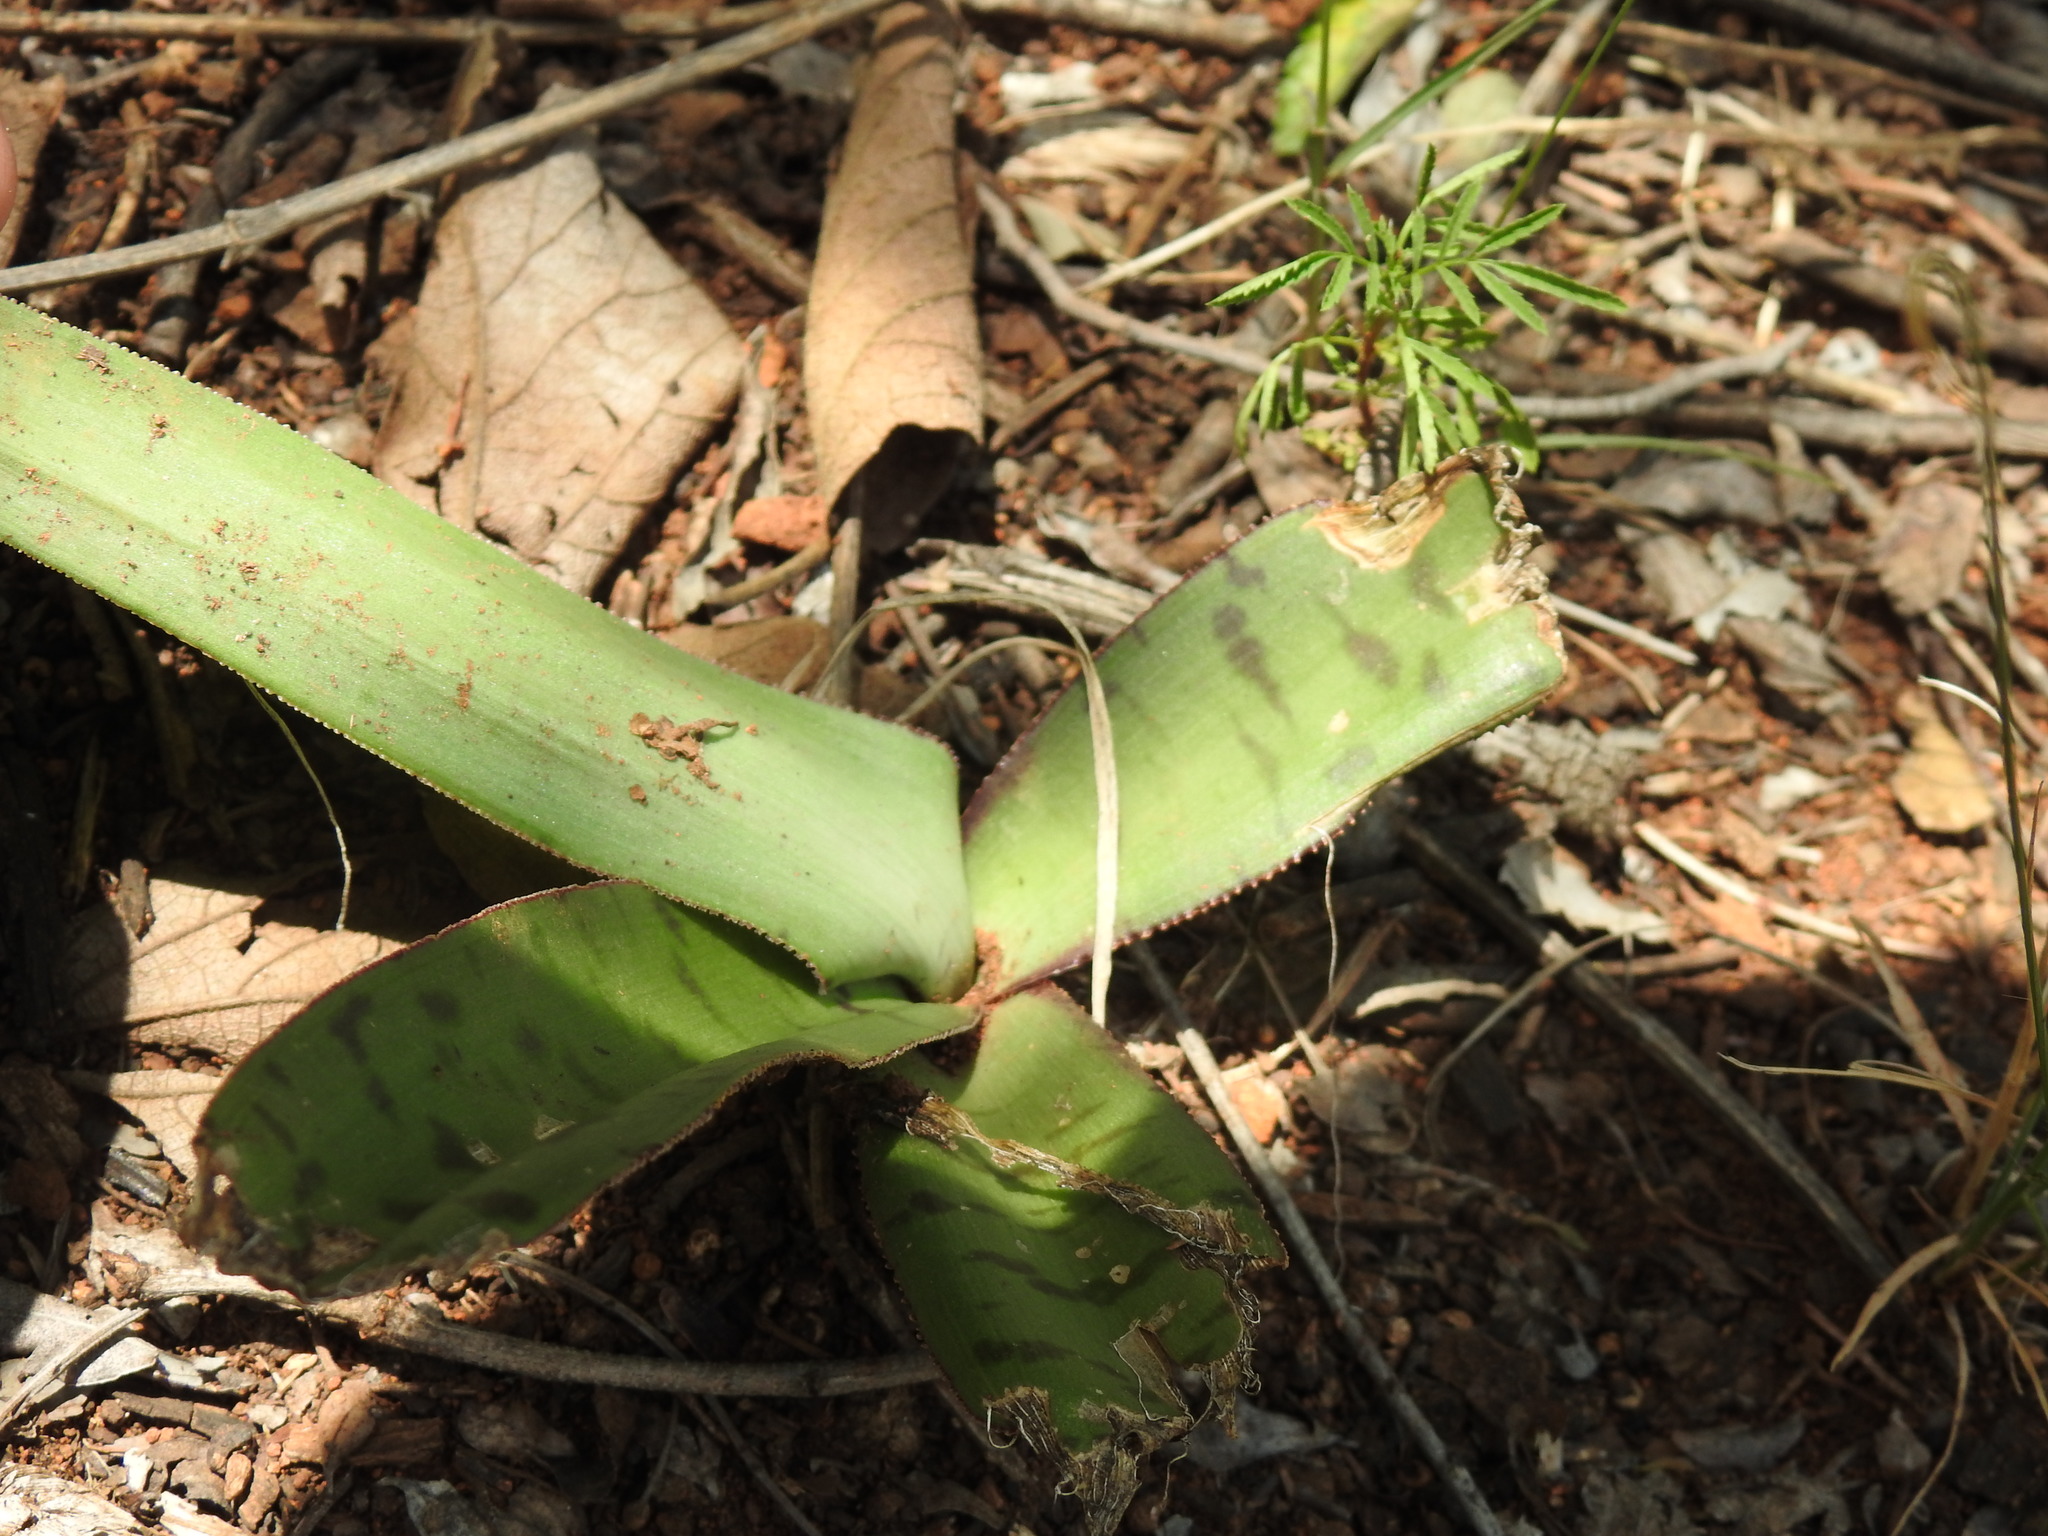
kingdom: Plantae
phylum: Tracheophyta
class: Liliopsida
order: Asparagales
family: Asparagaceae
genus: Ledebouria
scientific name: Ledebouria luteola
